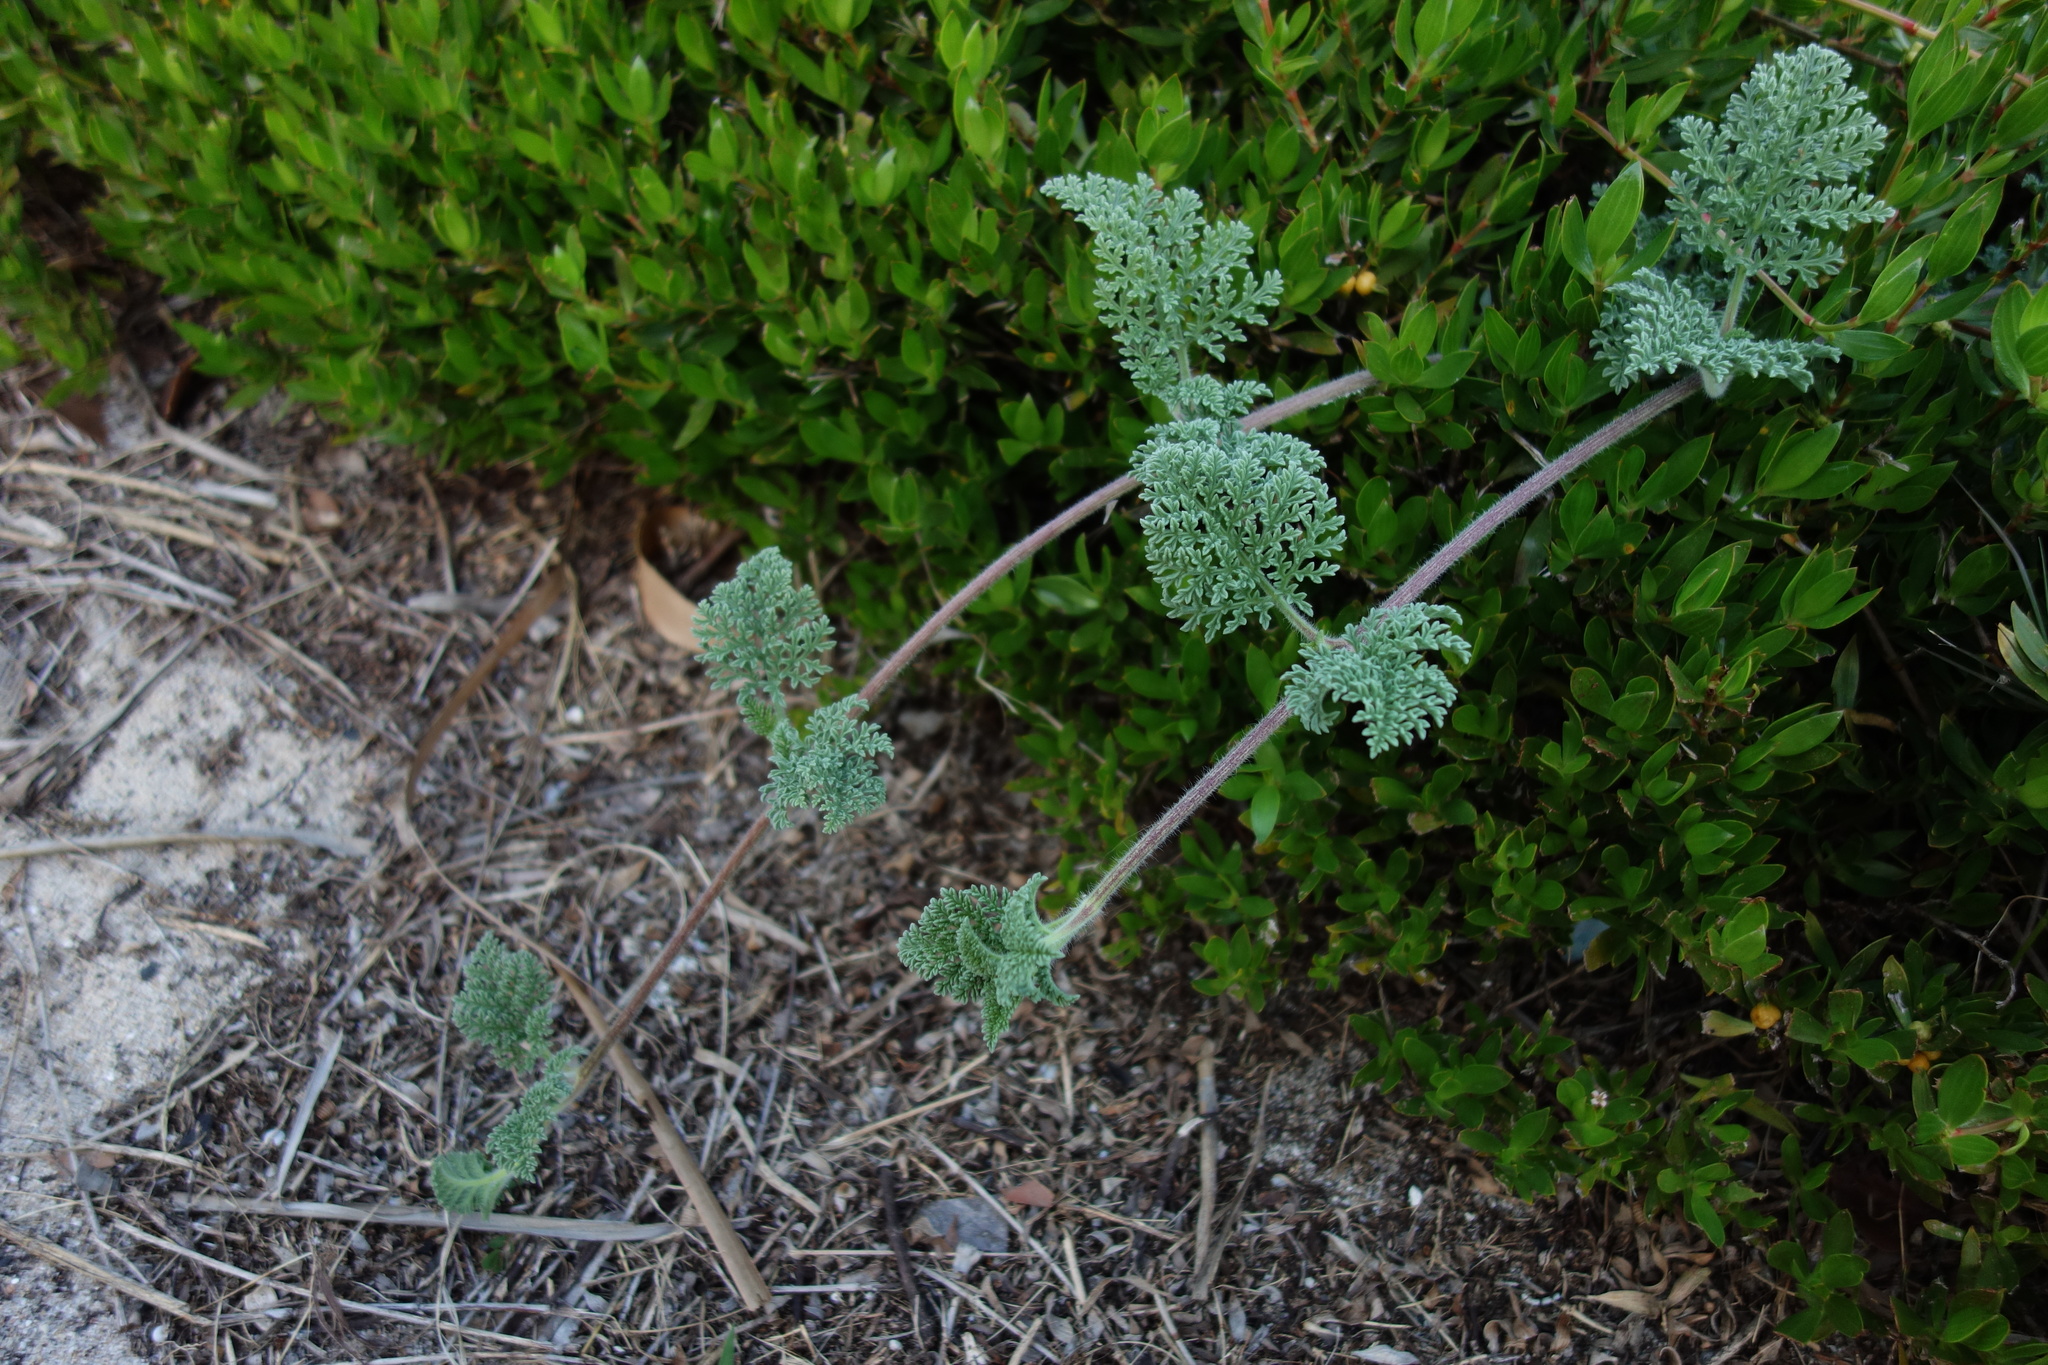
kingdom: Plantae
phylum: Tracheophyta
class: Magnoliopsida
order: Asterales
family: Asteraceae
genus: Ambrosia
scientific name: Ambrosia hispida
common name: Coastal ragweed
